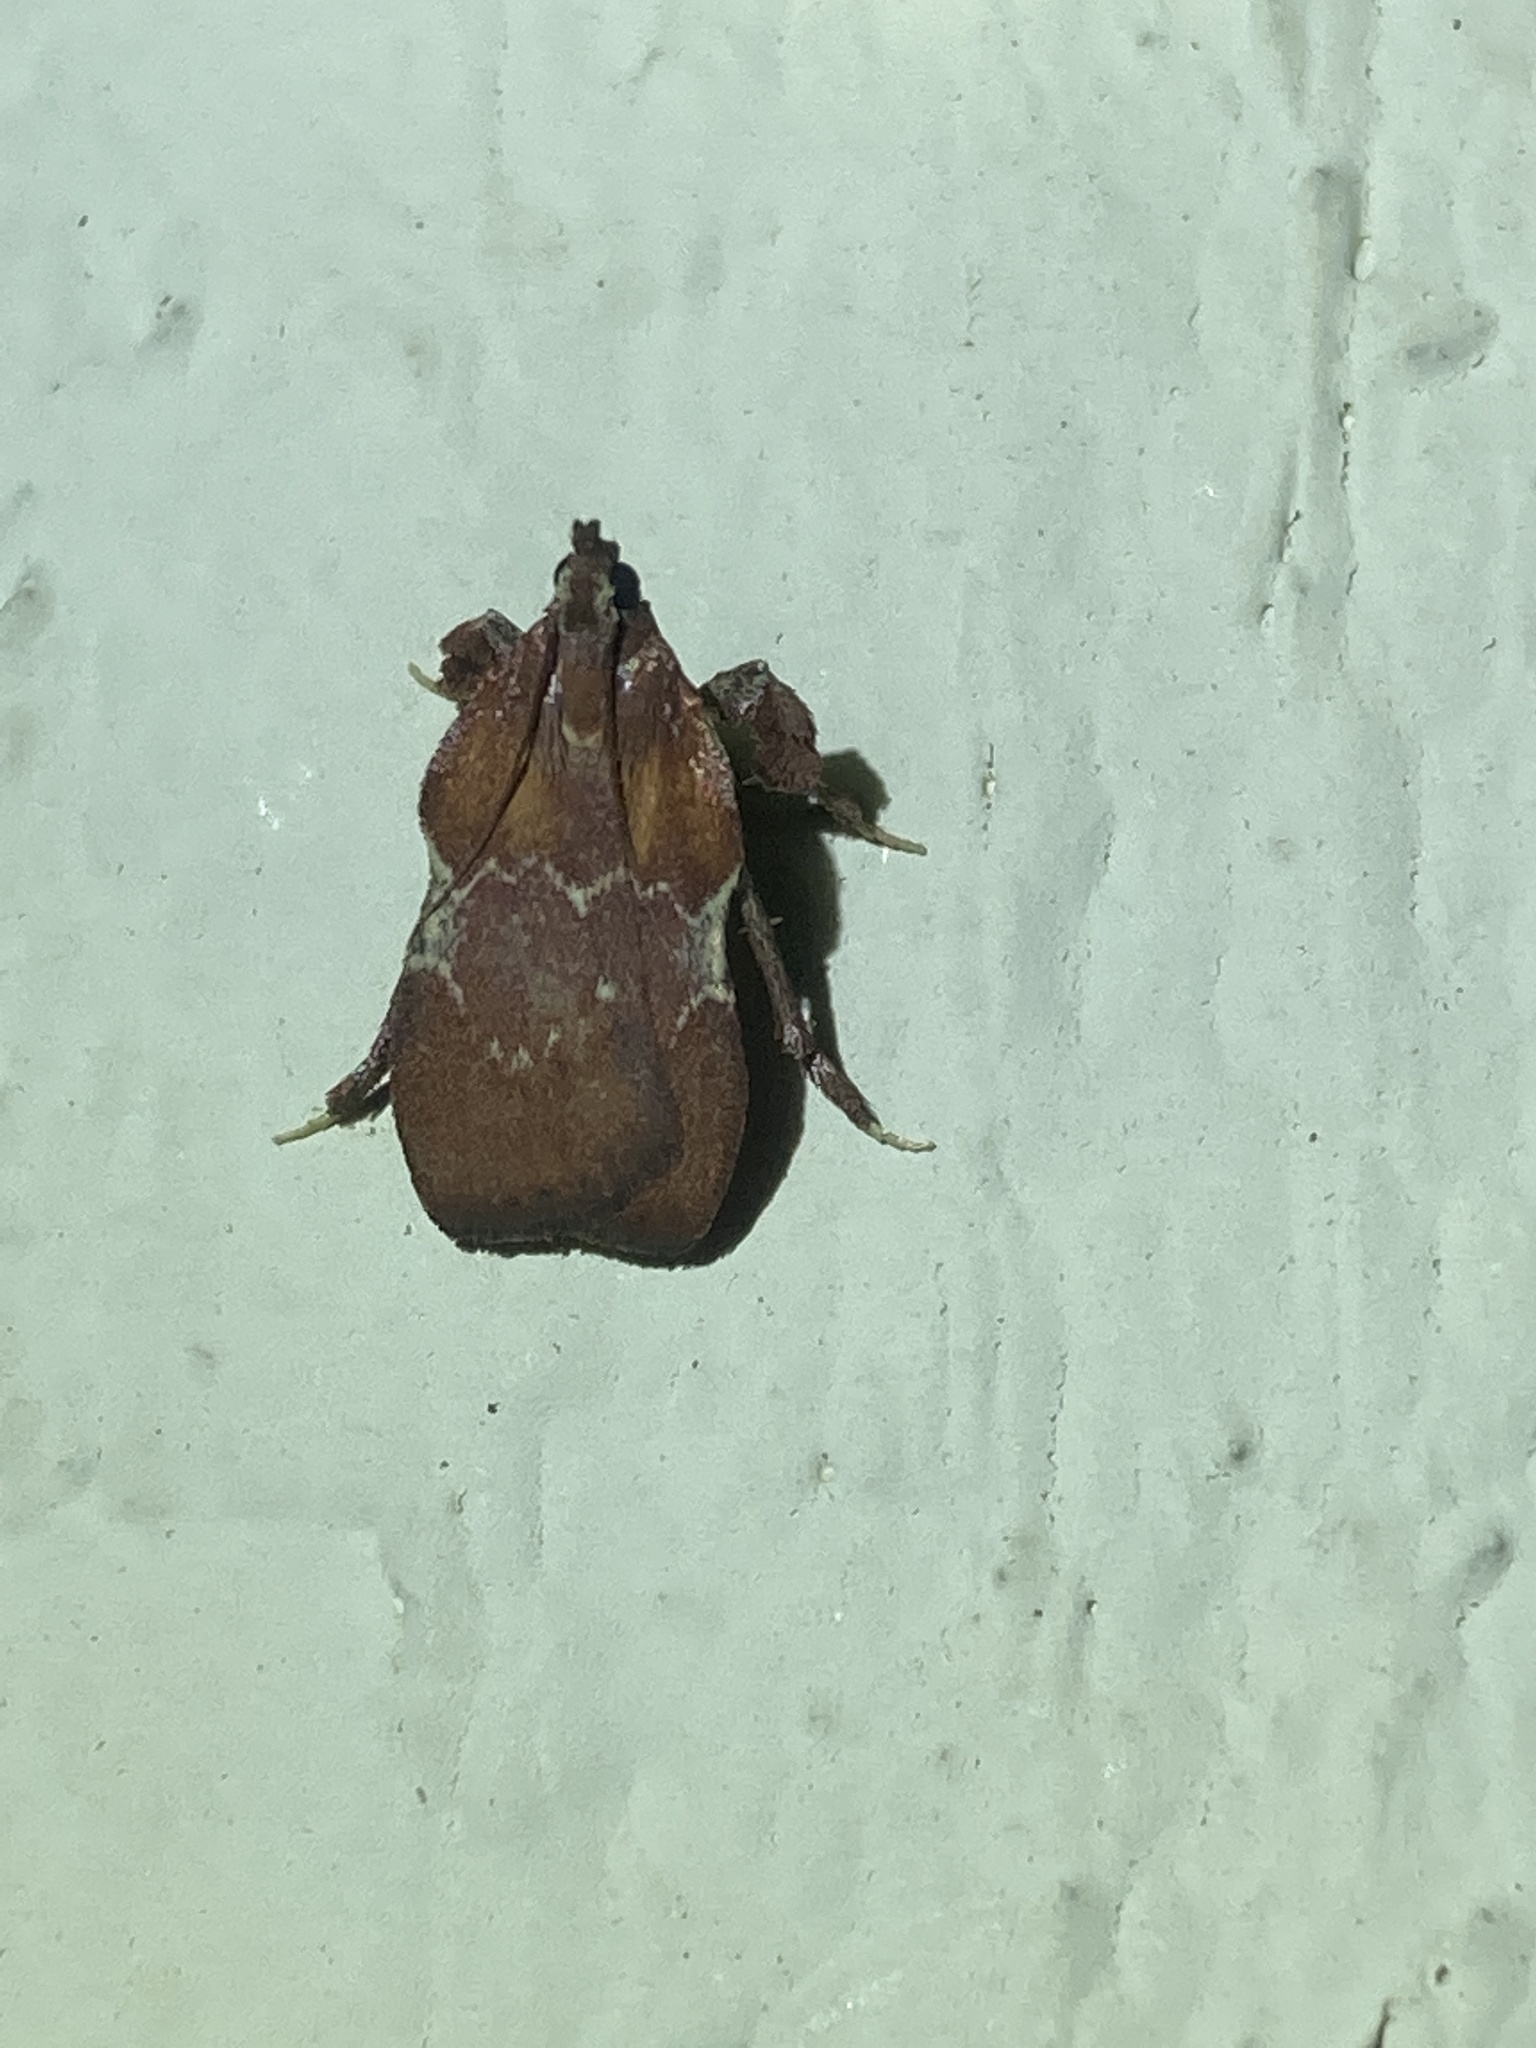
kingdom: Animalia
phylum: Arthropoda
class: Insecta
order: Lepidoptera
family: Pyralidae
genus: Galasa
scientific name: Galasa nigrinodis
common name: Boxwood leaftier moth
